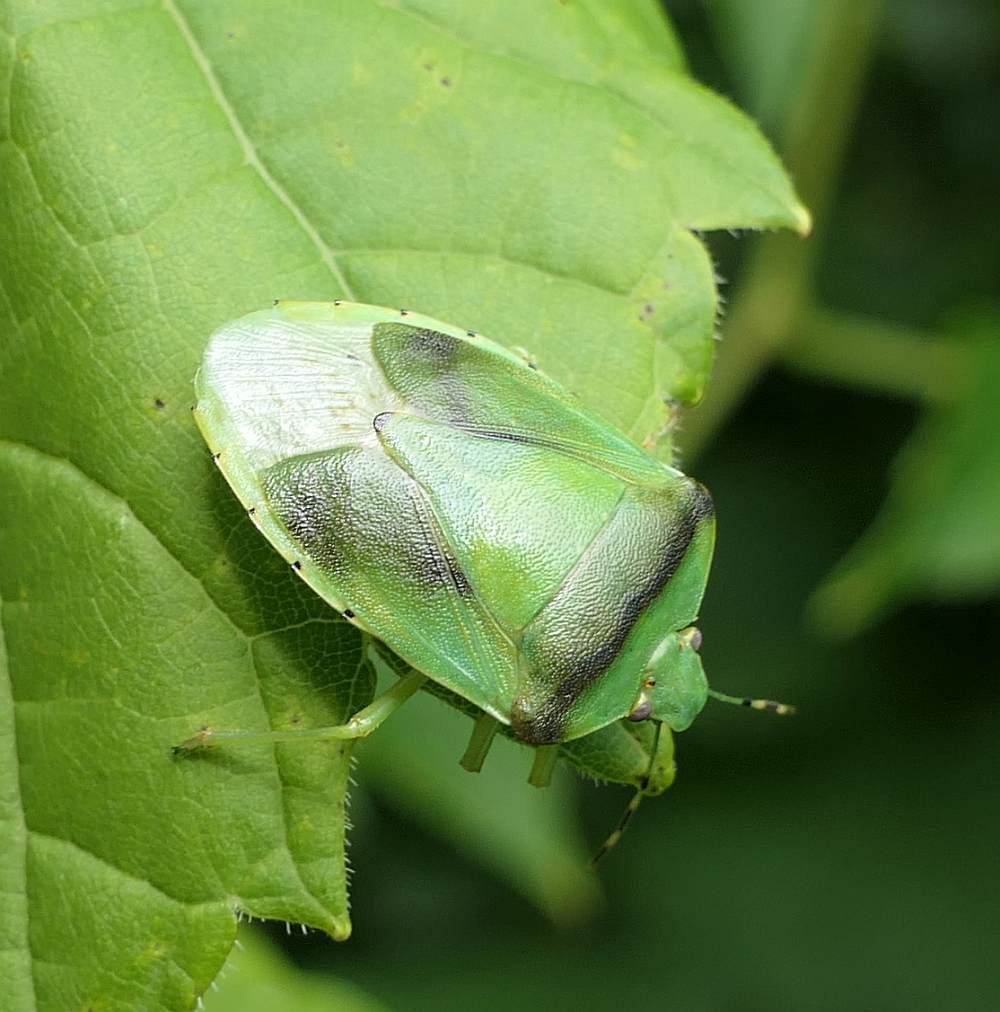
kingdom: Animalia
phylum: Arthropoda
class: Insecta
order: Hemiptera
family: Pentatomidae
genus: Chinavia
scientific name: Chinavia hilaris
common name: Green stink bug
